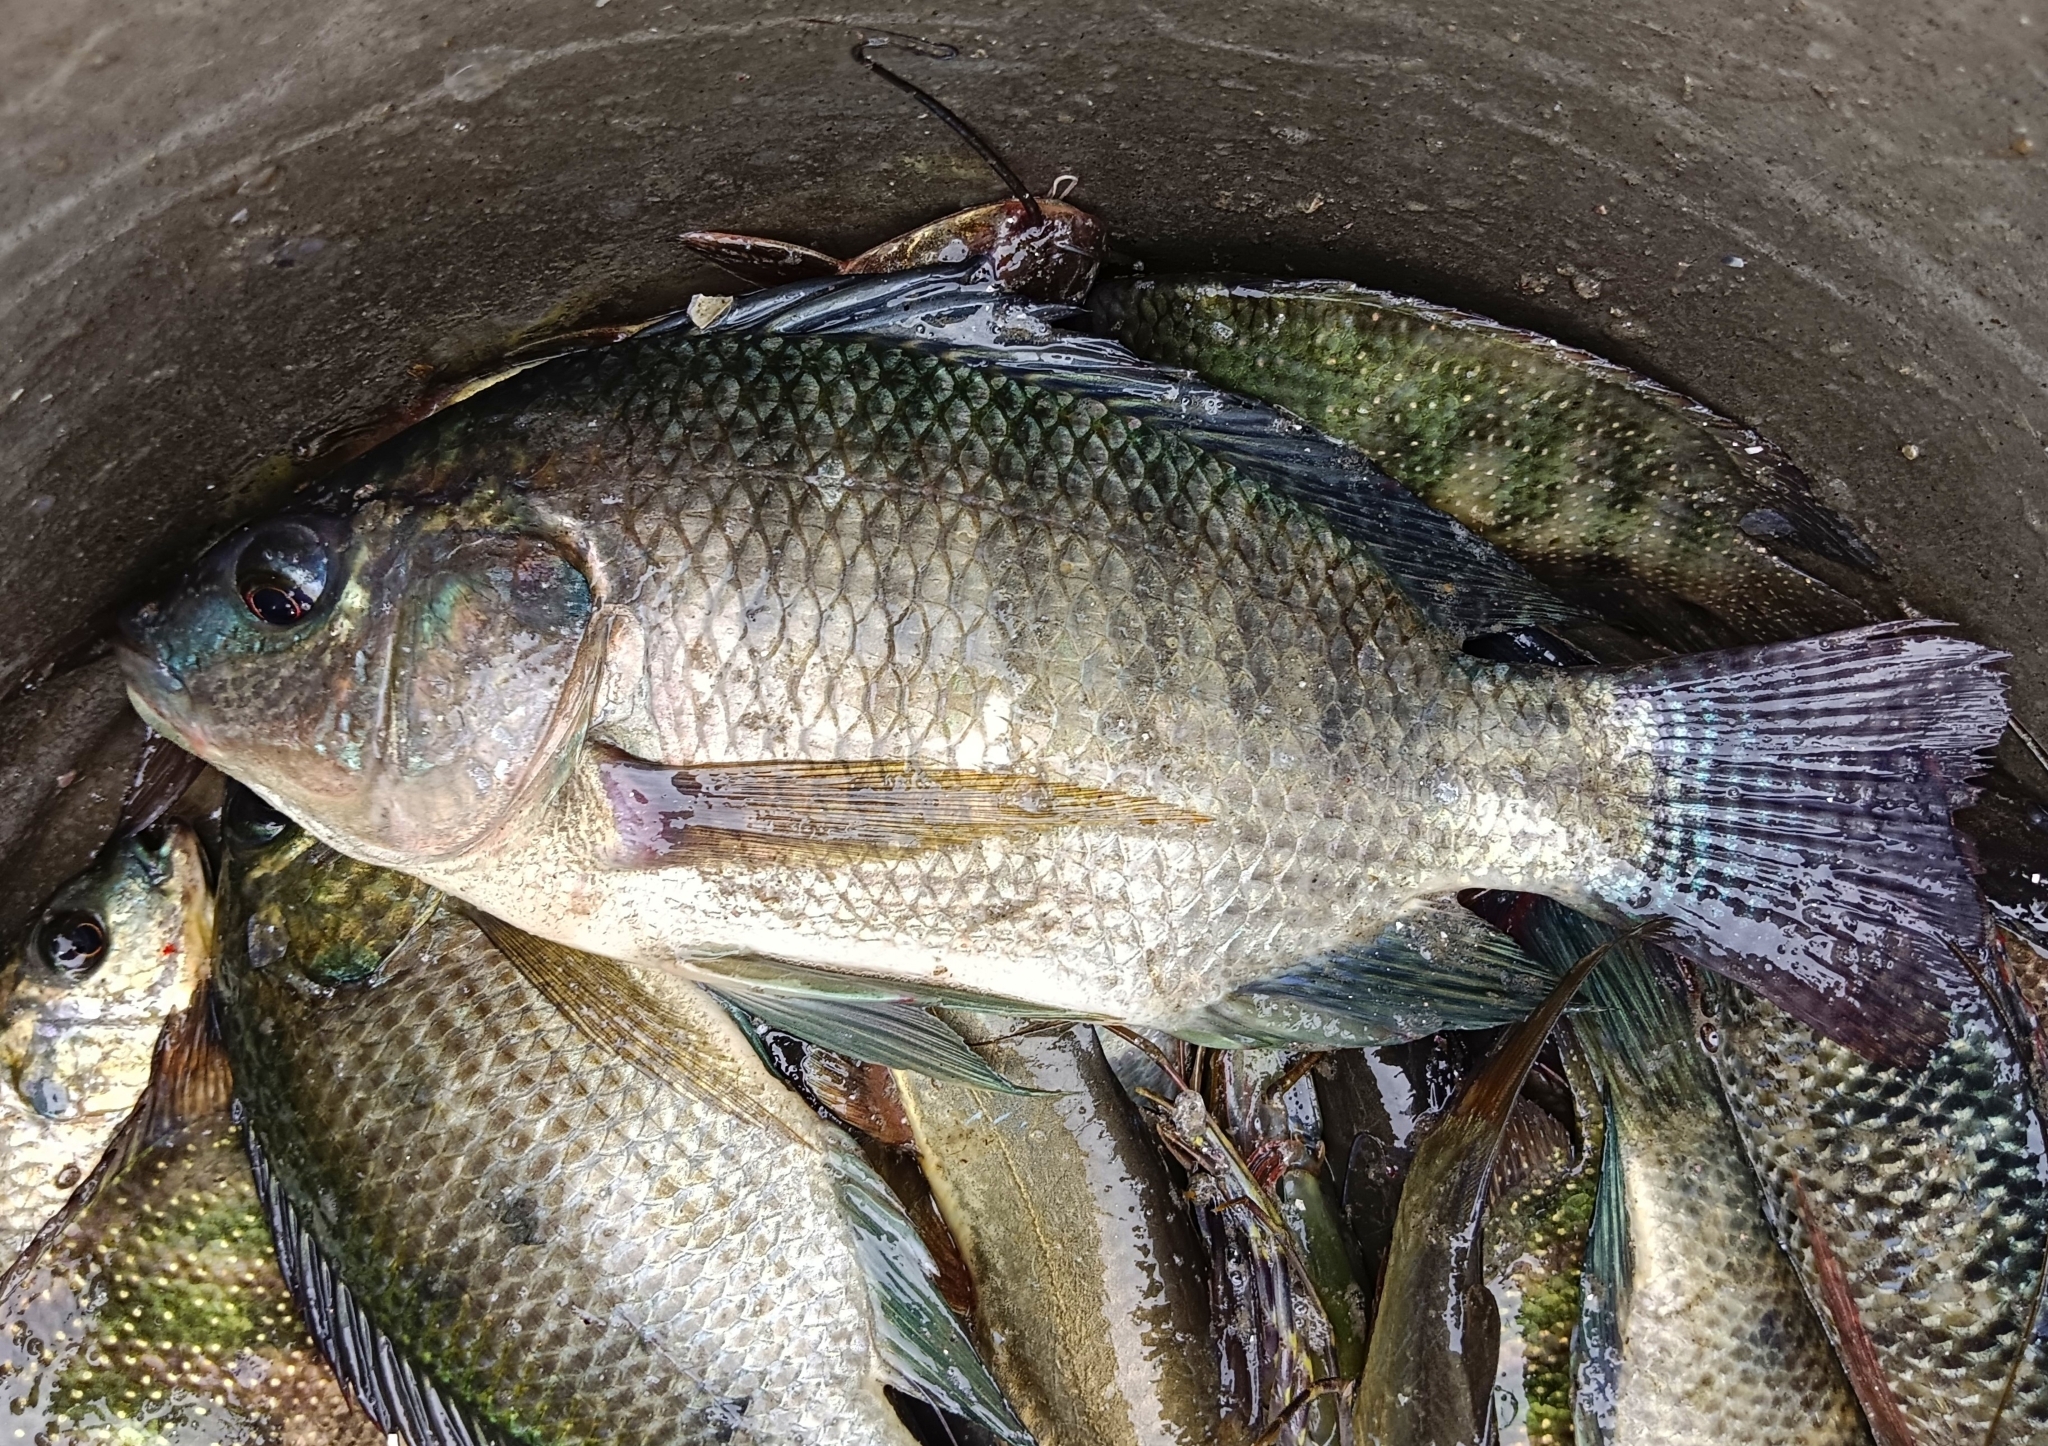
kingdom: Animalia
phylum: Chordata
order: Perciformes
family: Cichlidae
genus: Oreochromis
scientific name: Oreochromis mossambicus
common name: Mozambique tilapia
